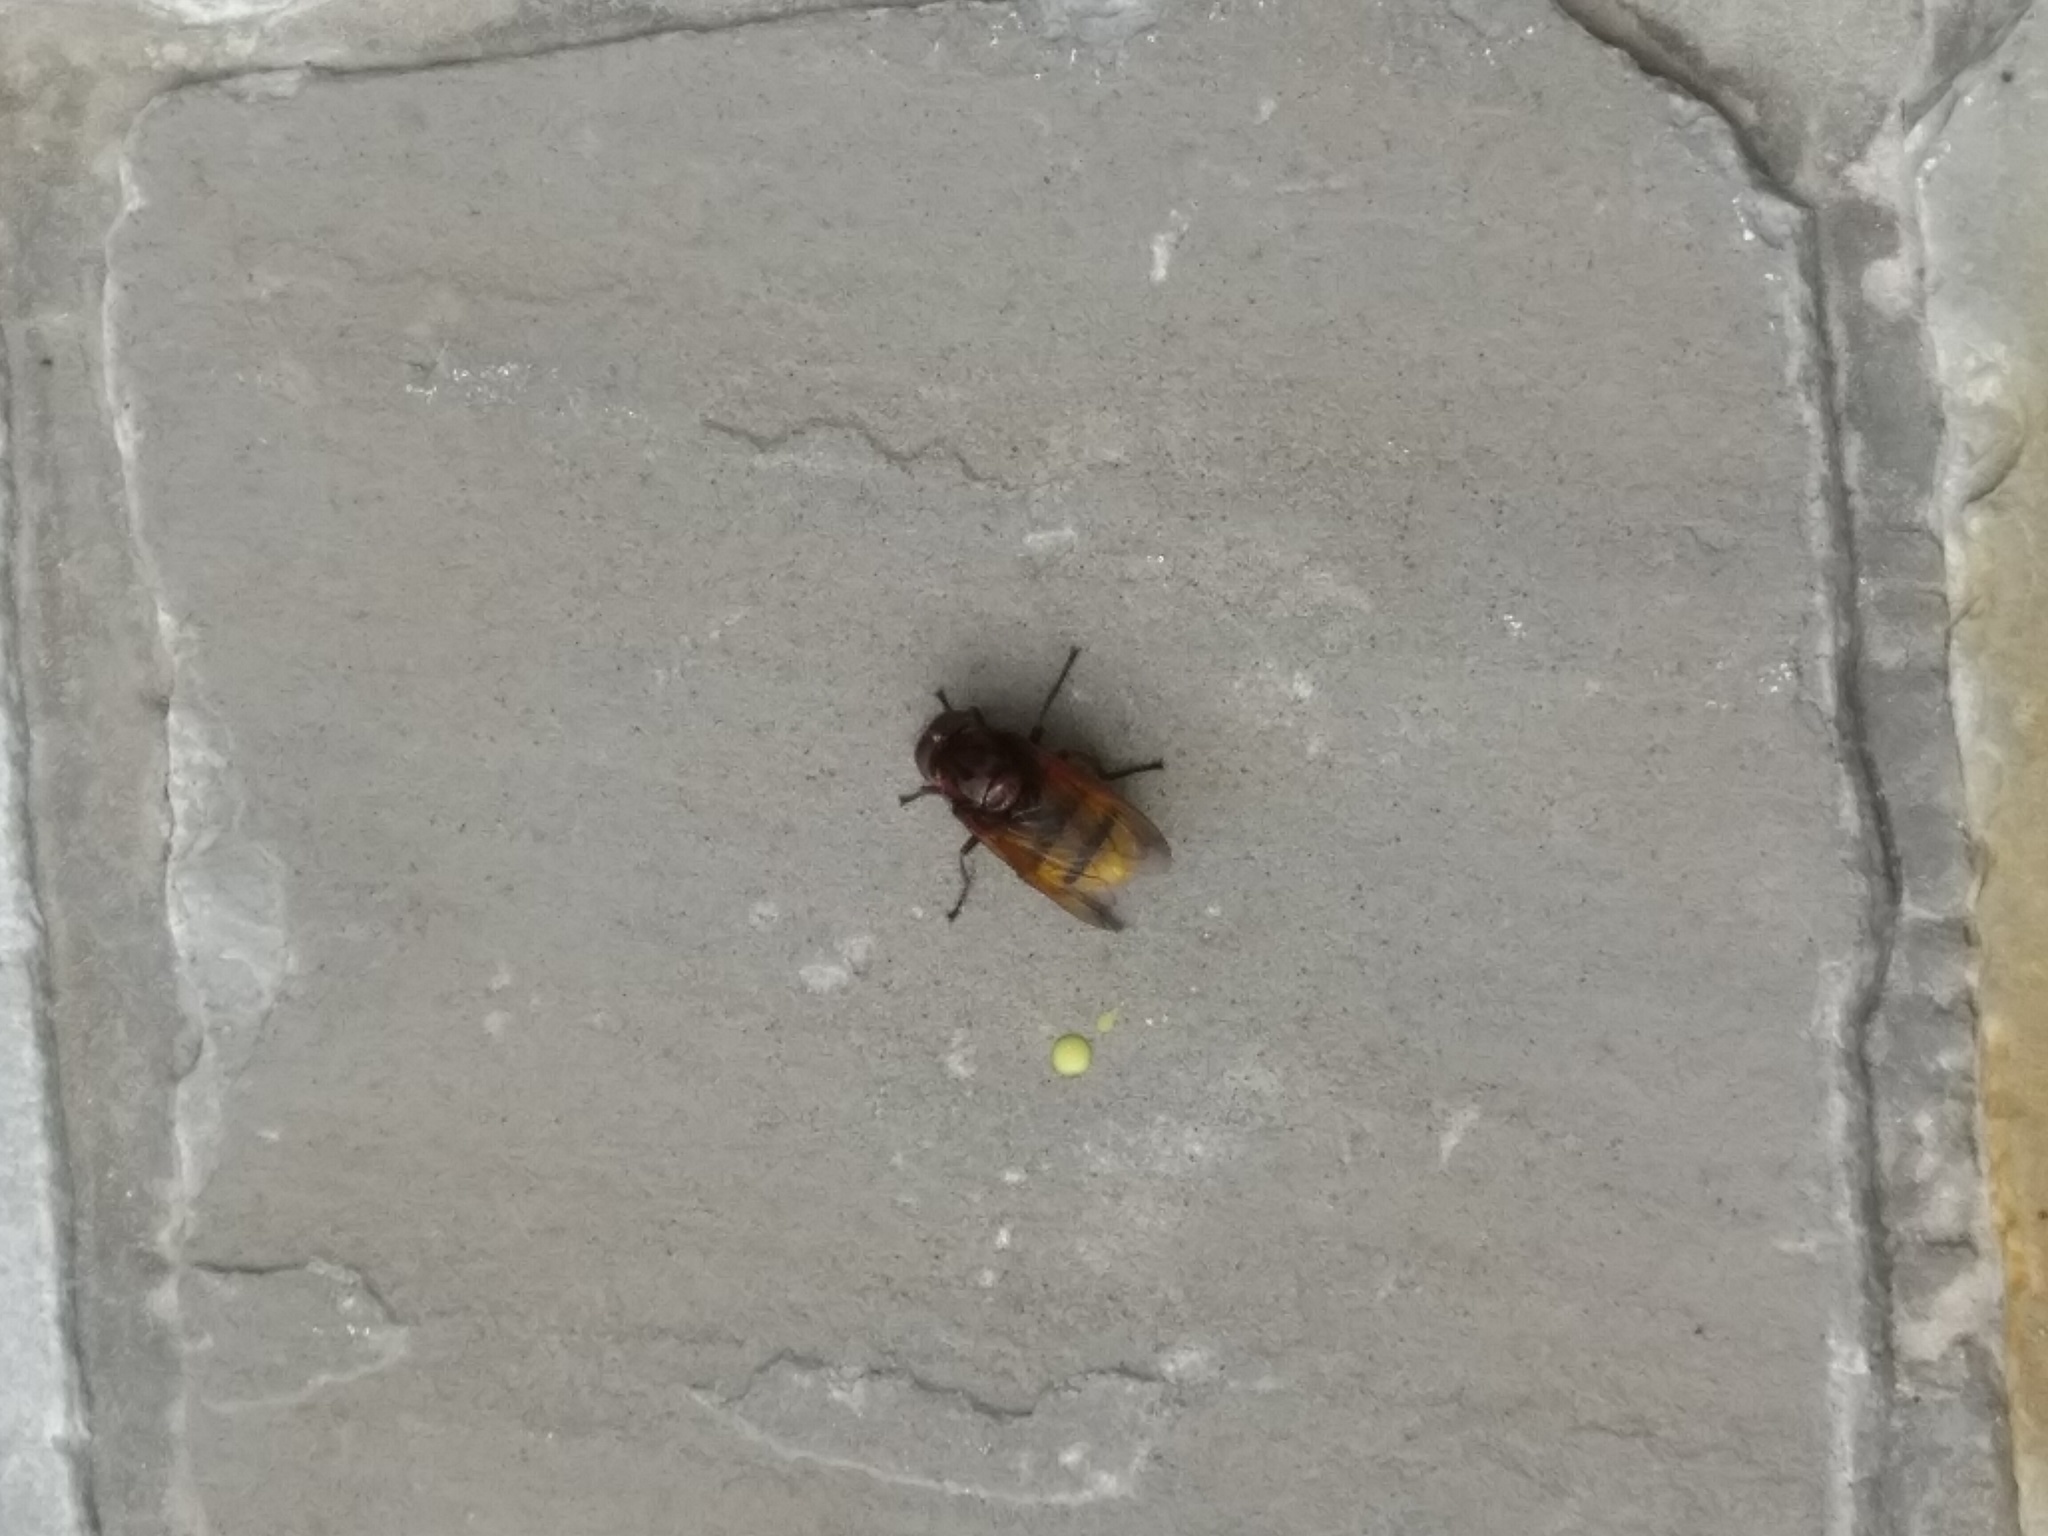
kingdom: Animalia
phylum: Arthropoda
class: Insecta
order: Diptera
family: Syrphidae
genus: Volucella
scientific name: Volucella zonaria
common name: Hornet hoverfly
